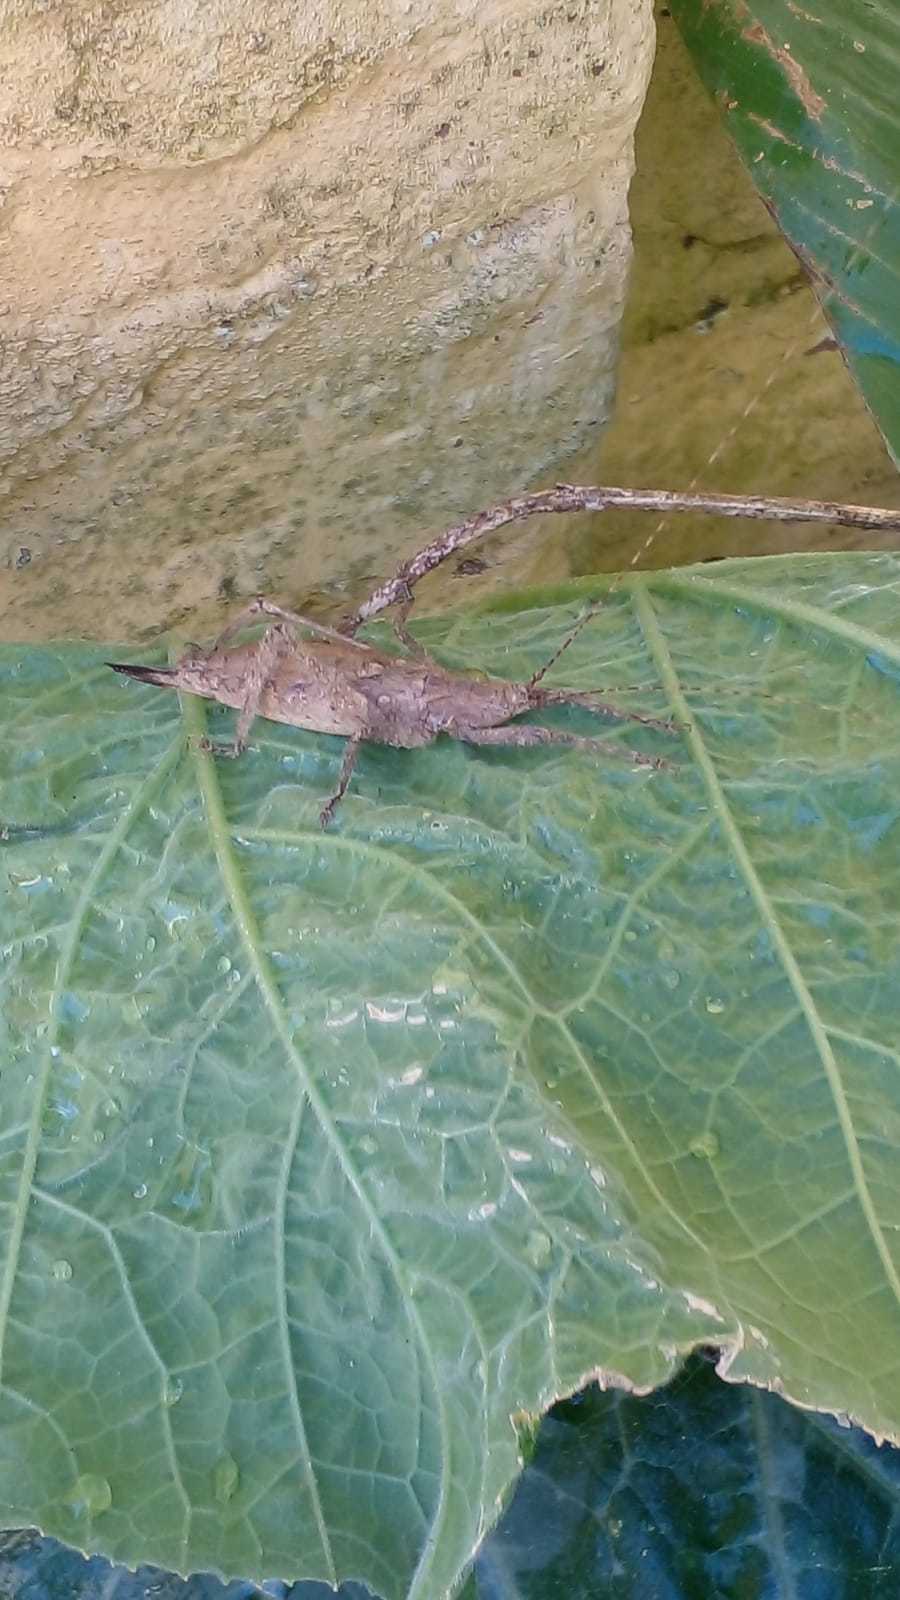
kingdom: Animalia
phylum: Arthropoda
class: Insecta
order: Orthoptera
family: Tettigoniidae
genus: Dasyscelus
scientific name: Dasyscelus normalis
